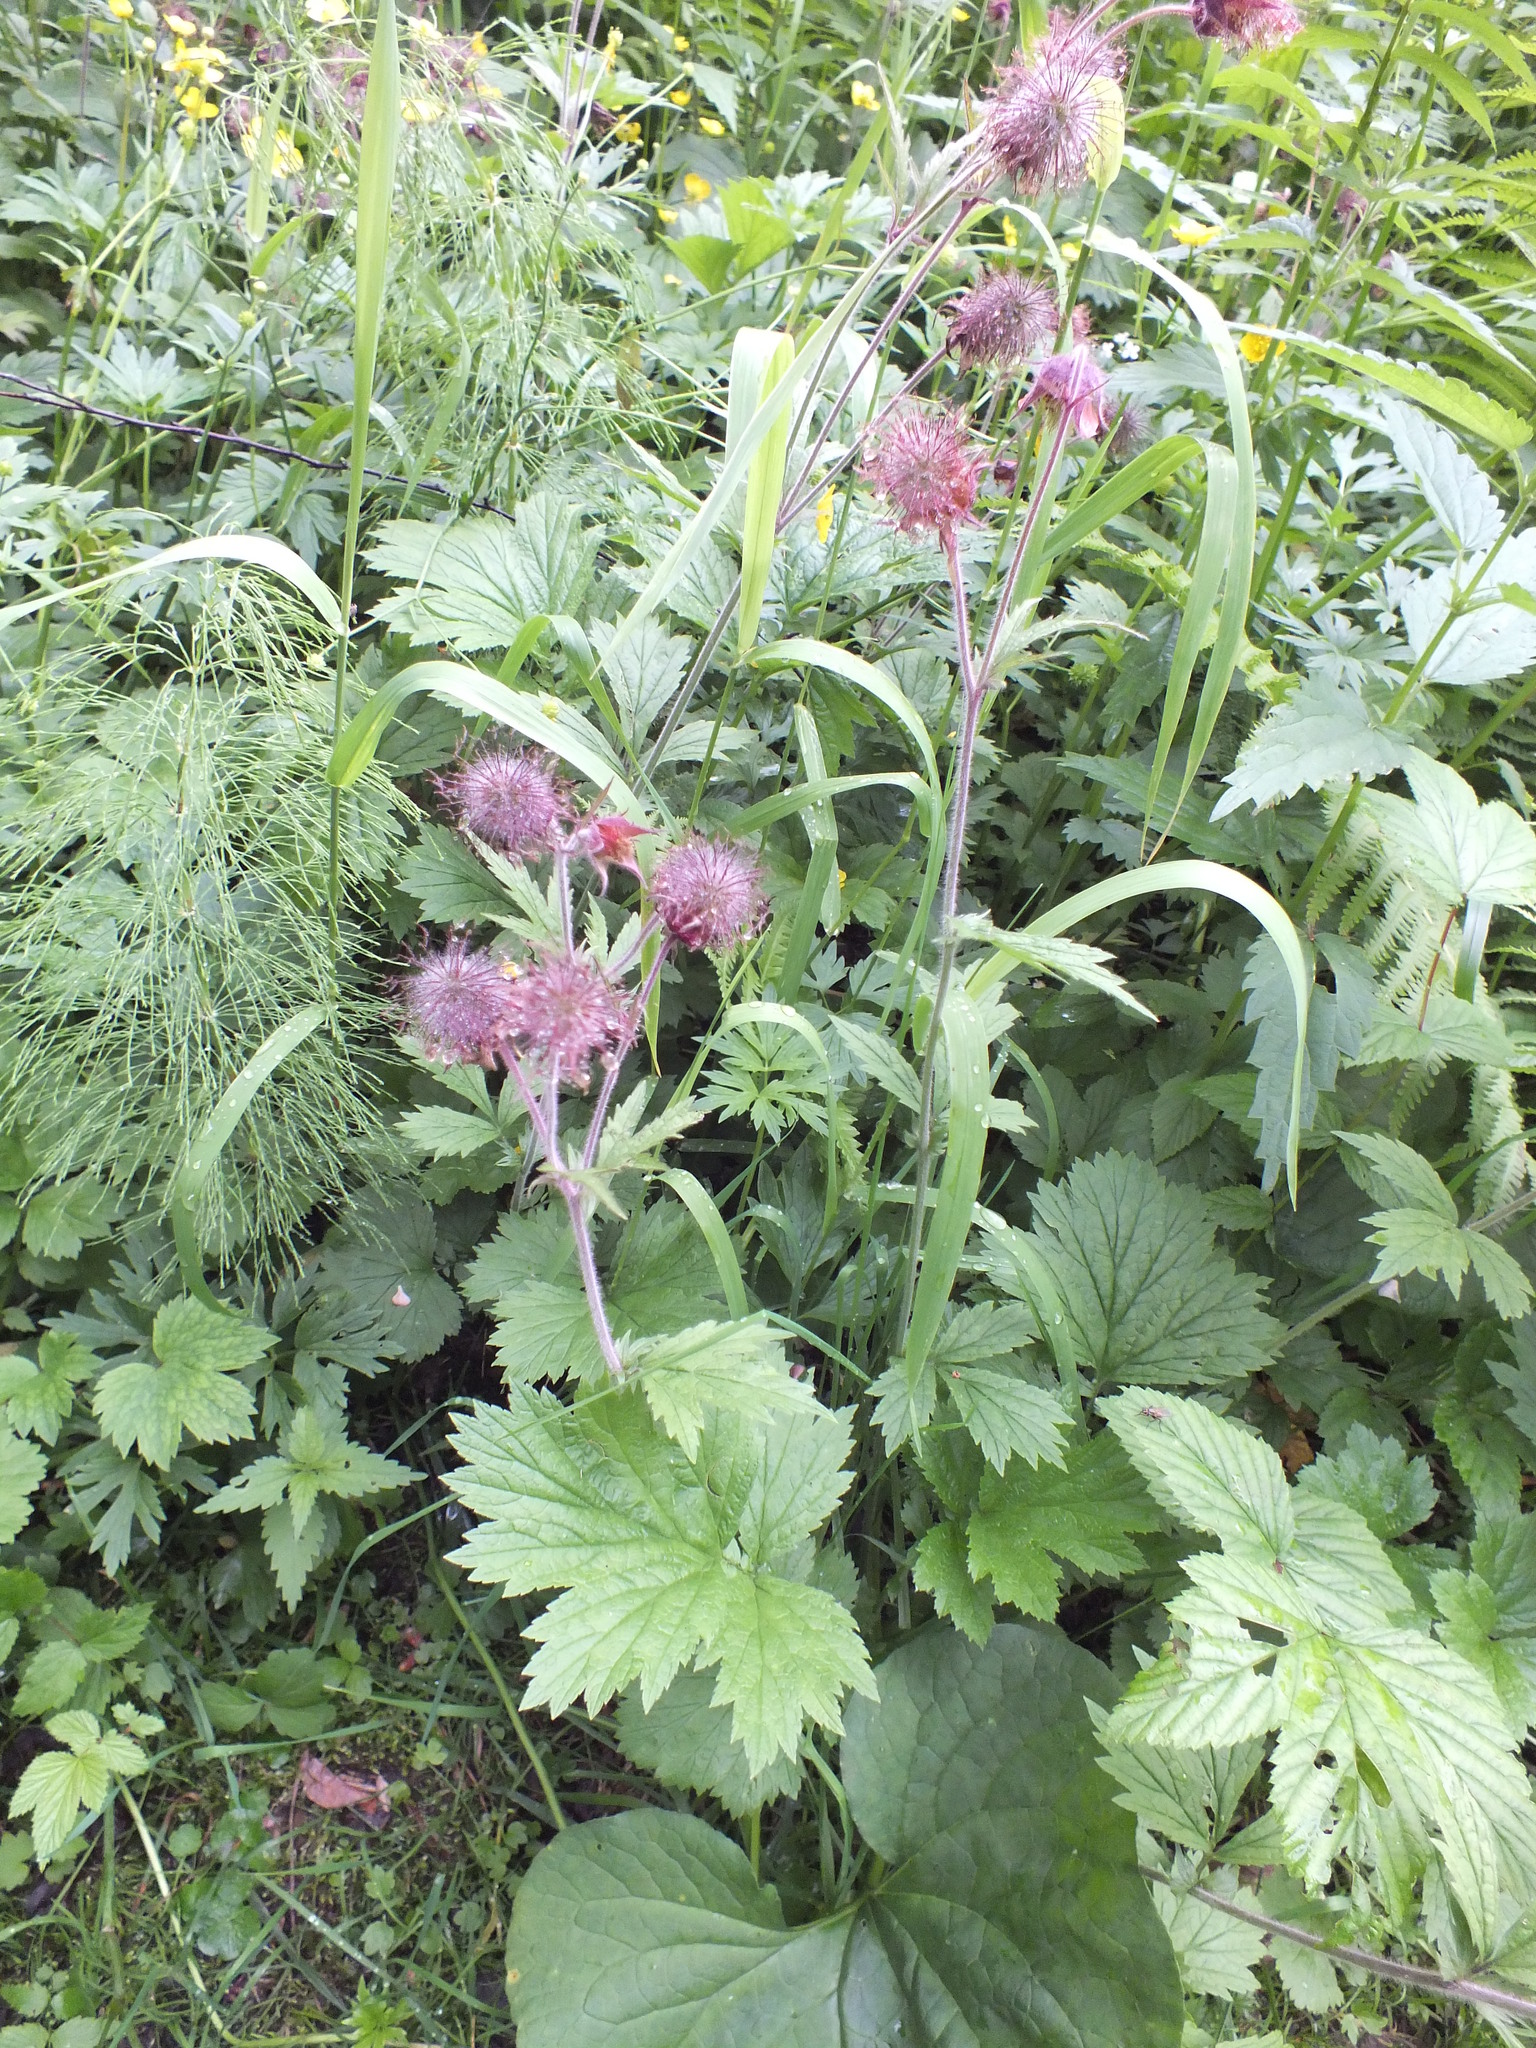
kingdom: Plantae
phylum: Tracheophyta
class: Magnoliopsida
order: Rosales
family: Rosaceae
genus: Geum
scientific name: Geum rivale
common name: Water avens
